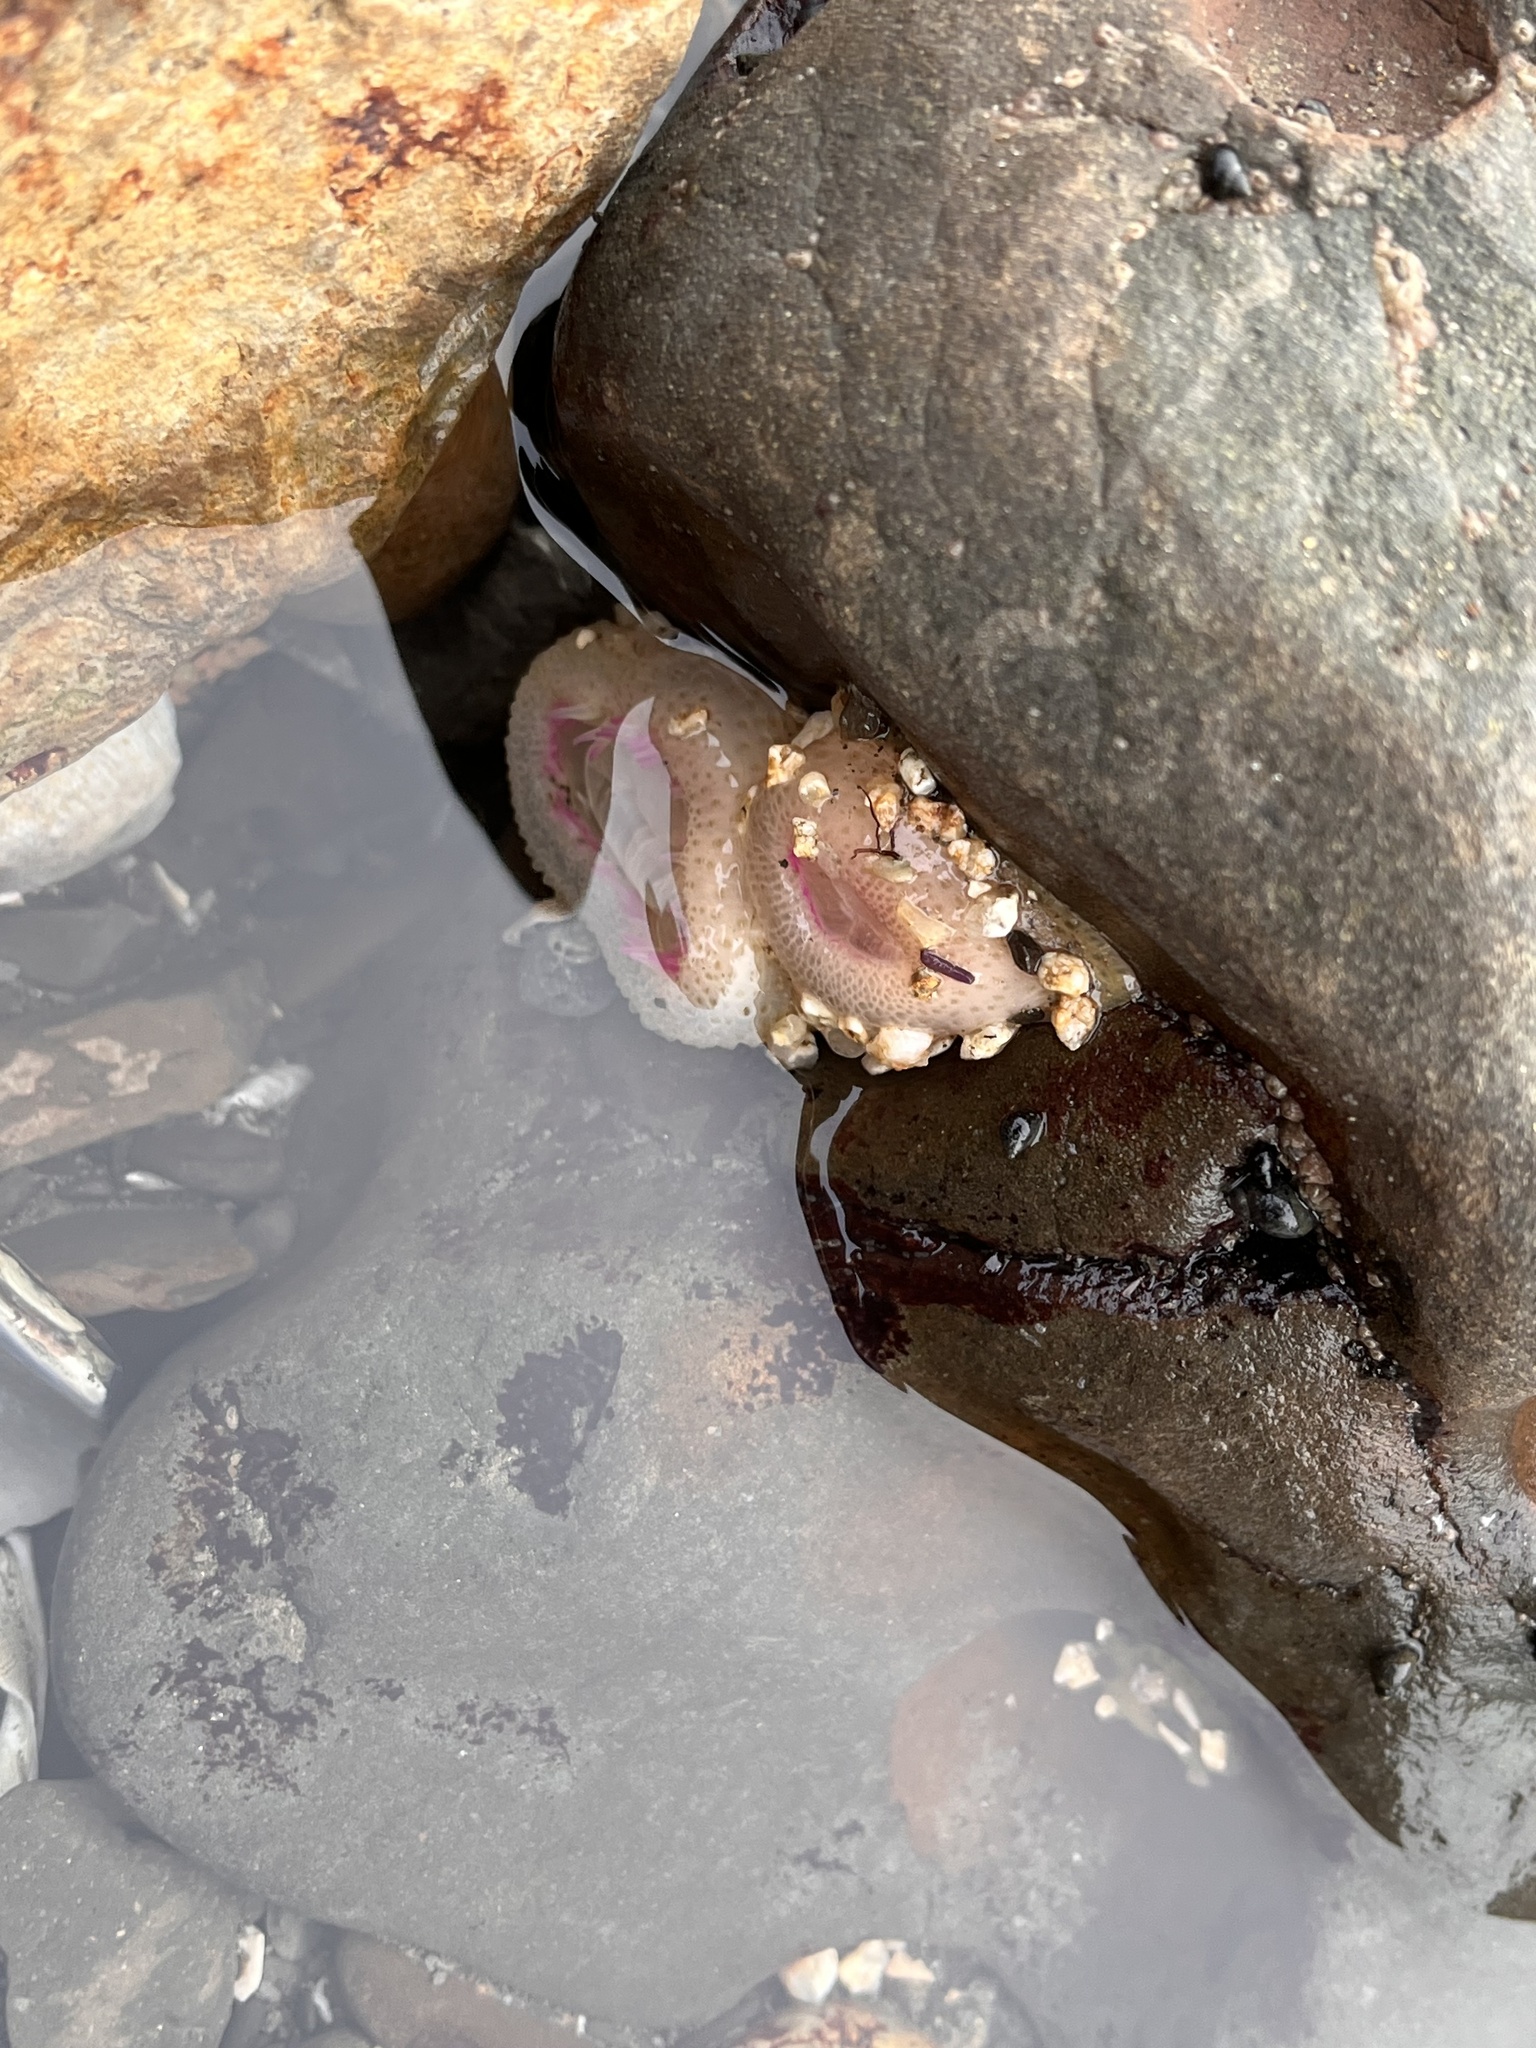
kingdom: Animalia
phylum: Cnidaria
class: Anthozoa
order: Actiniaria
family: Actiniidae
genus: Anthopleura
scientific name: Anthopleura elegantissima
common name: Clonal anemone
